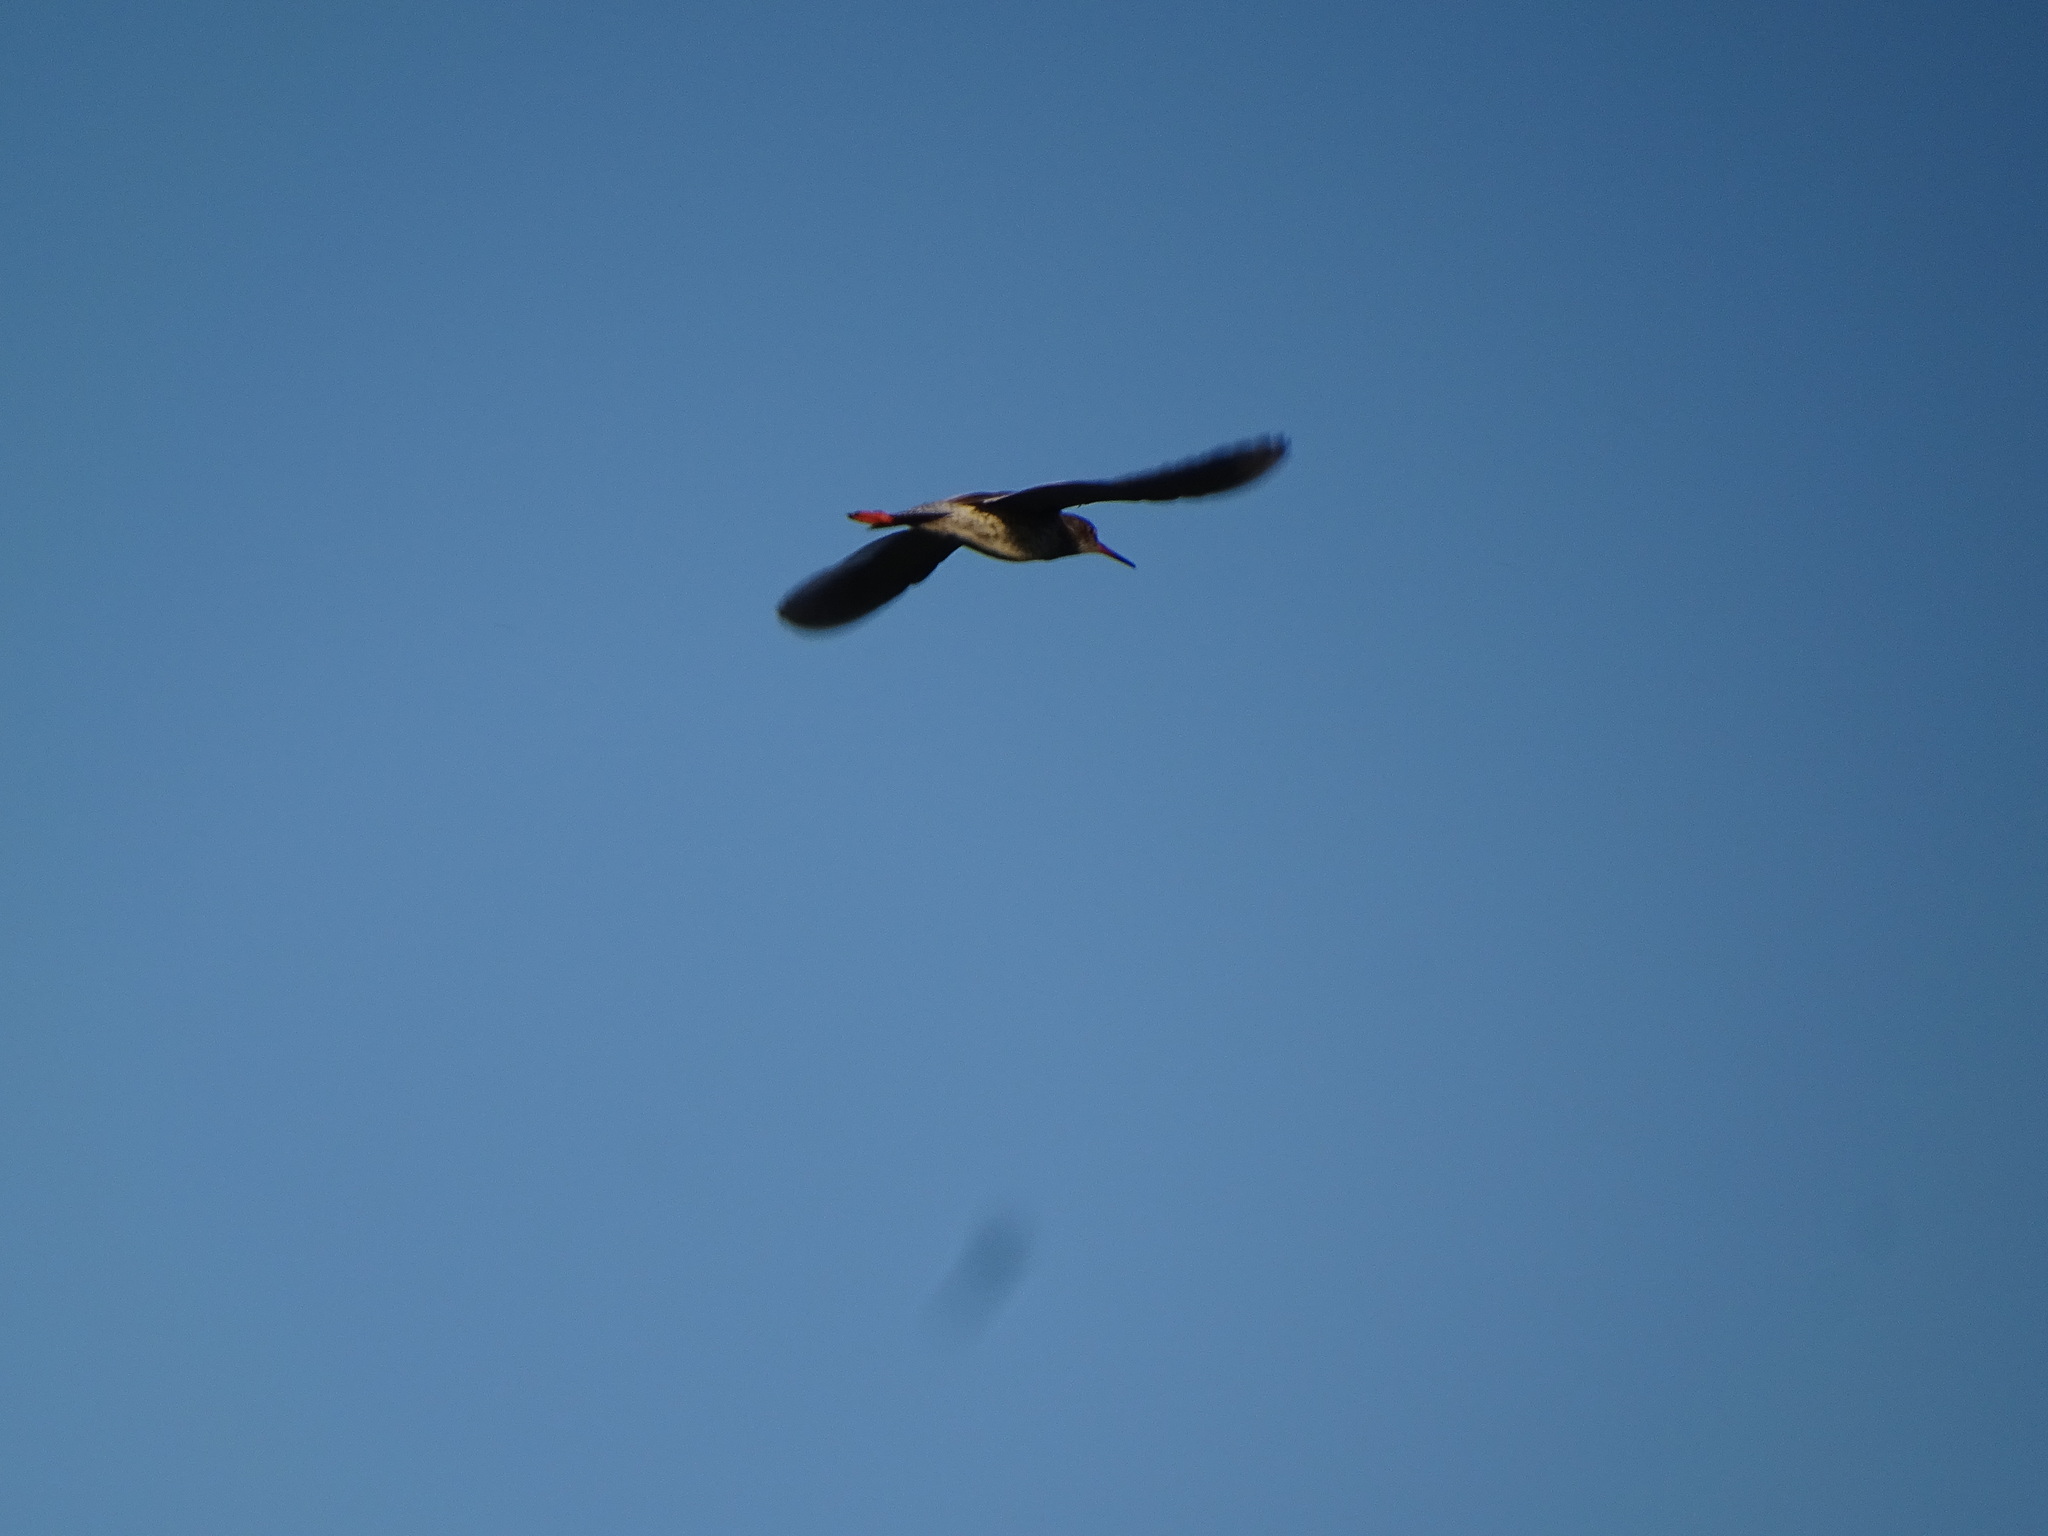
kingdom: Animalia
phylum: Chordata
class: Aves
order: Charadriiformes
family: Scolopacidae
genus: Tringa
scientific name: Tringa totanus
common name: Common redshank
